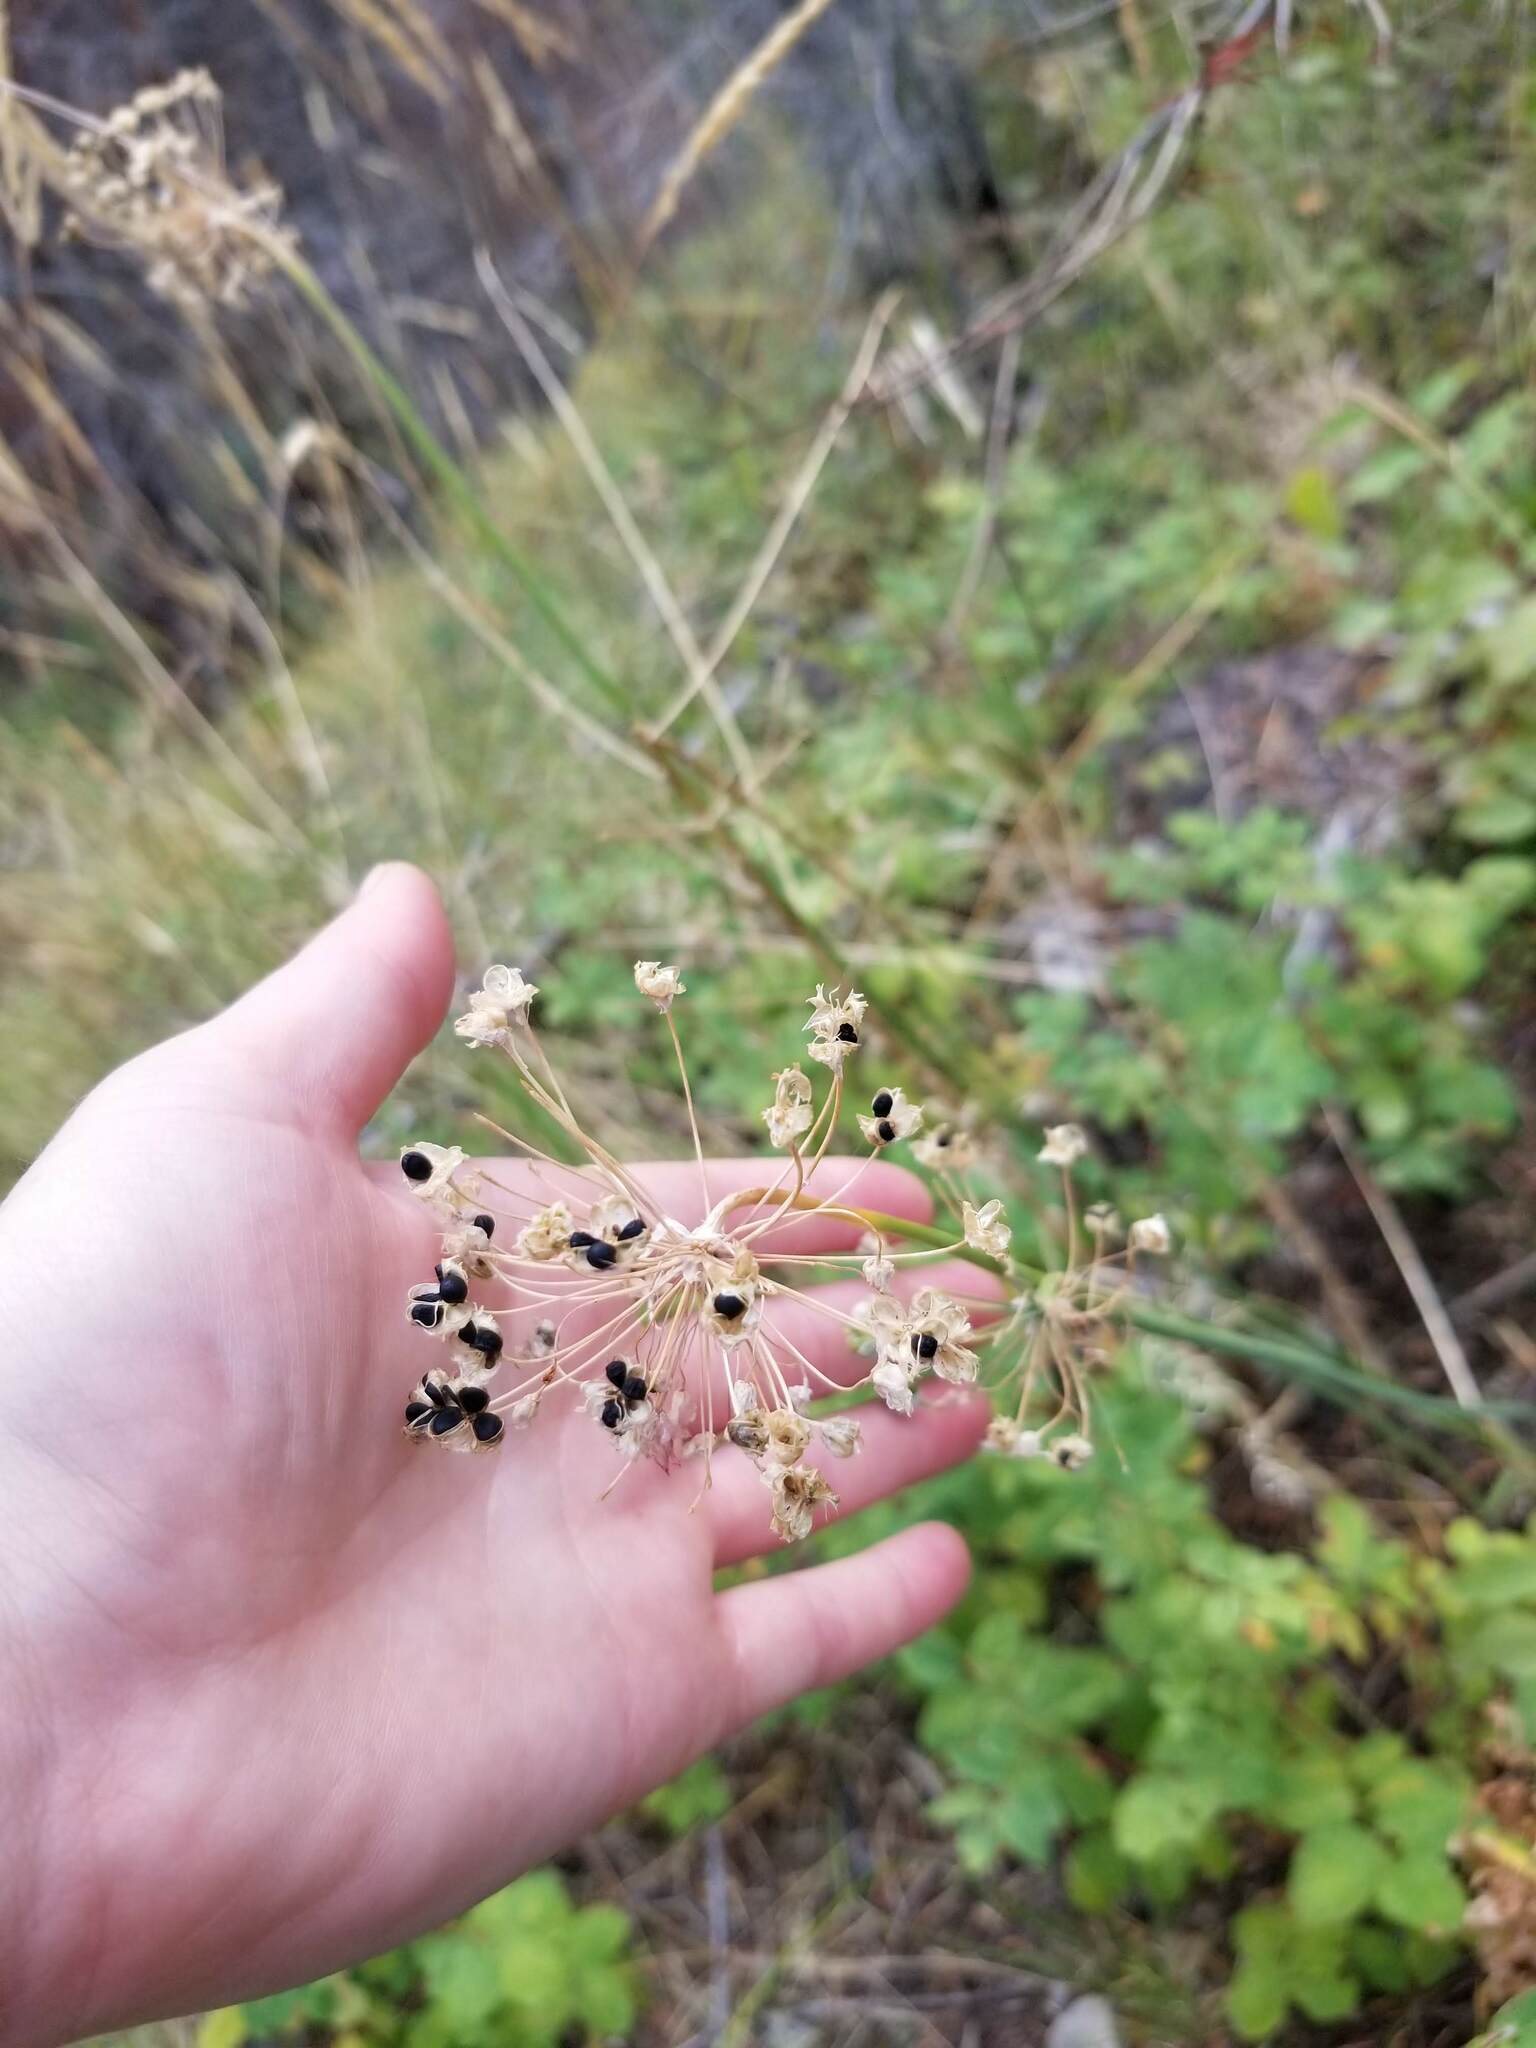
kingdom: Plantae
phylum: Tracheophyta
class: Liliopsida
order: Asparagales
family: Amaryllidaceae
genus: Allium
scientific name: Allium cernuum
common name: Nodding onion
